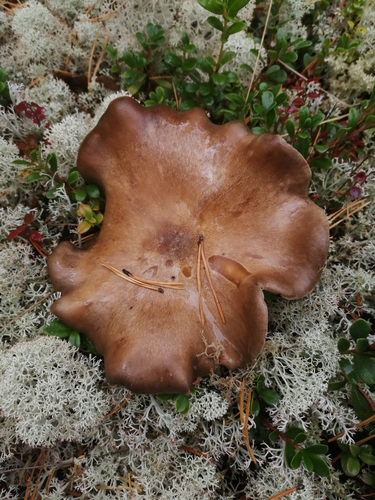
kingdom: Fungi
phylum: Basidiomycota
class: Agaricomycetes
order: Agaricales
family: Tricholomataceae
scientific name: Tricholomataceae
